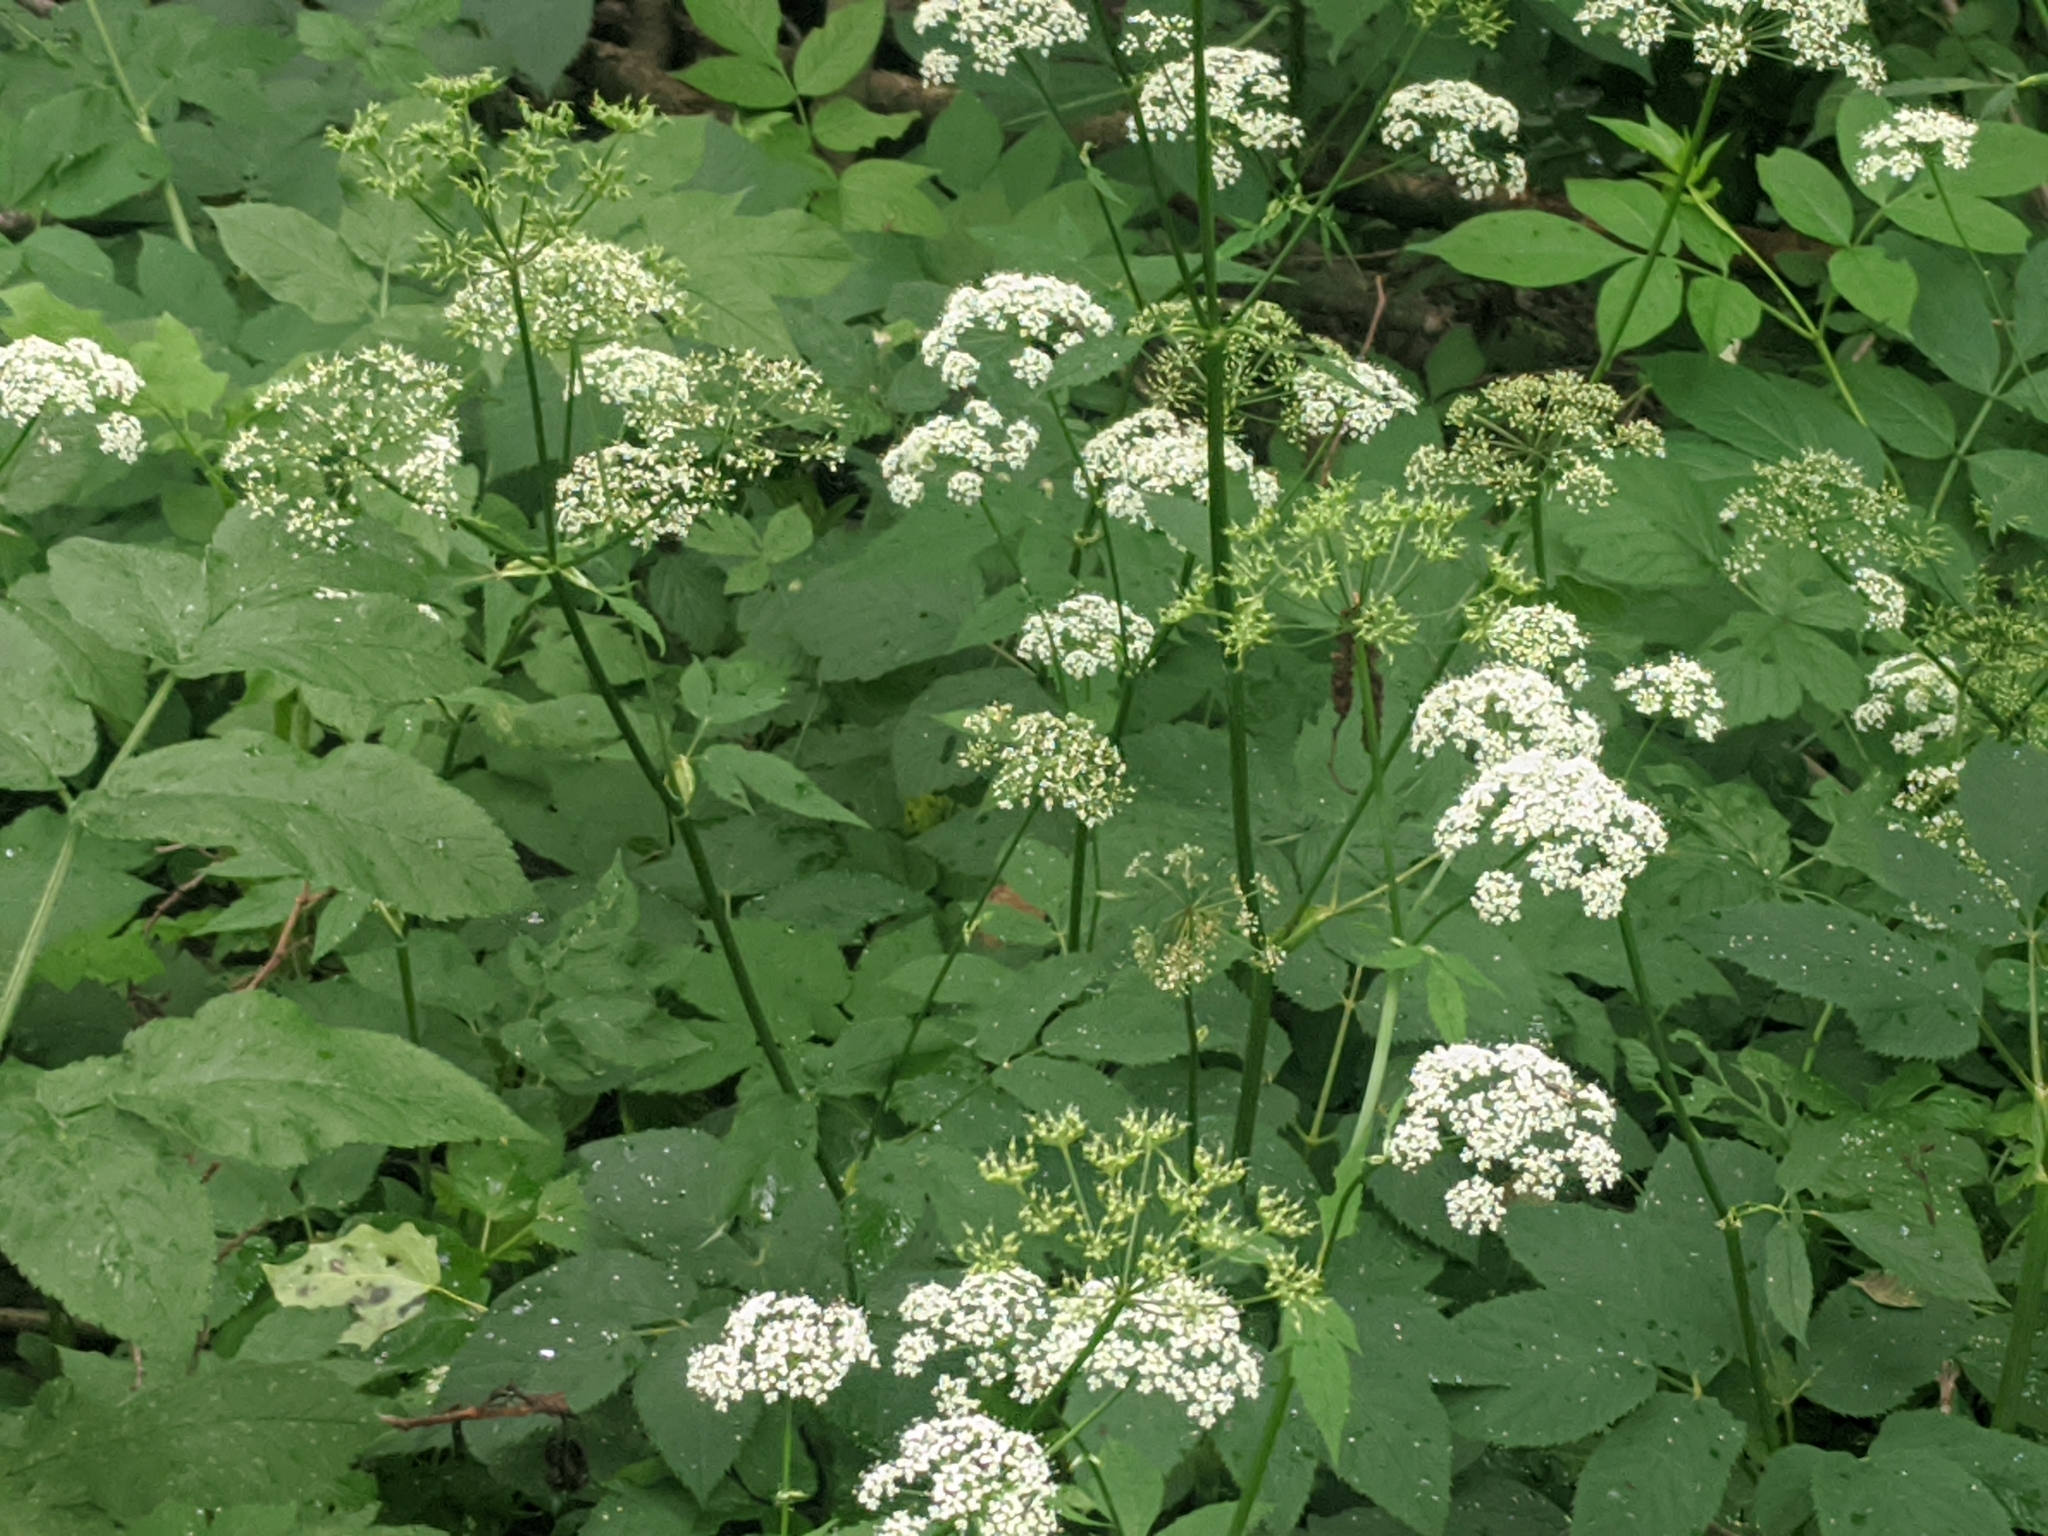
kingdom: Plantae
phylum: Tracheophyta
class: Magnoliopsida
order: Apiales
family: Apiaceae
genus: Aegopodium
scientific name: Aegopodium podagraria
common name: Ground-elder
